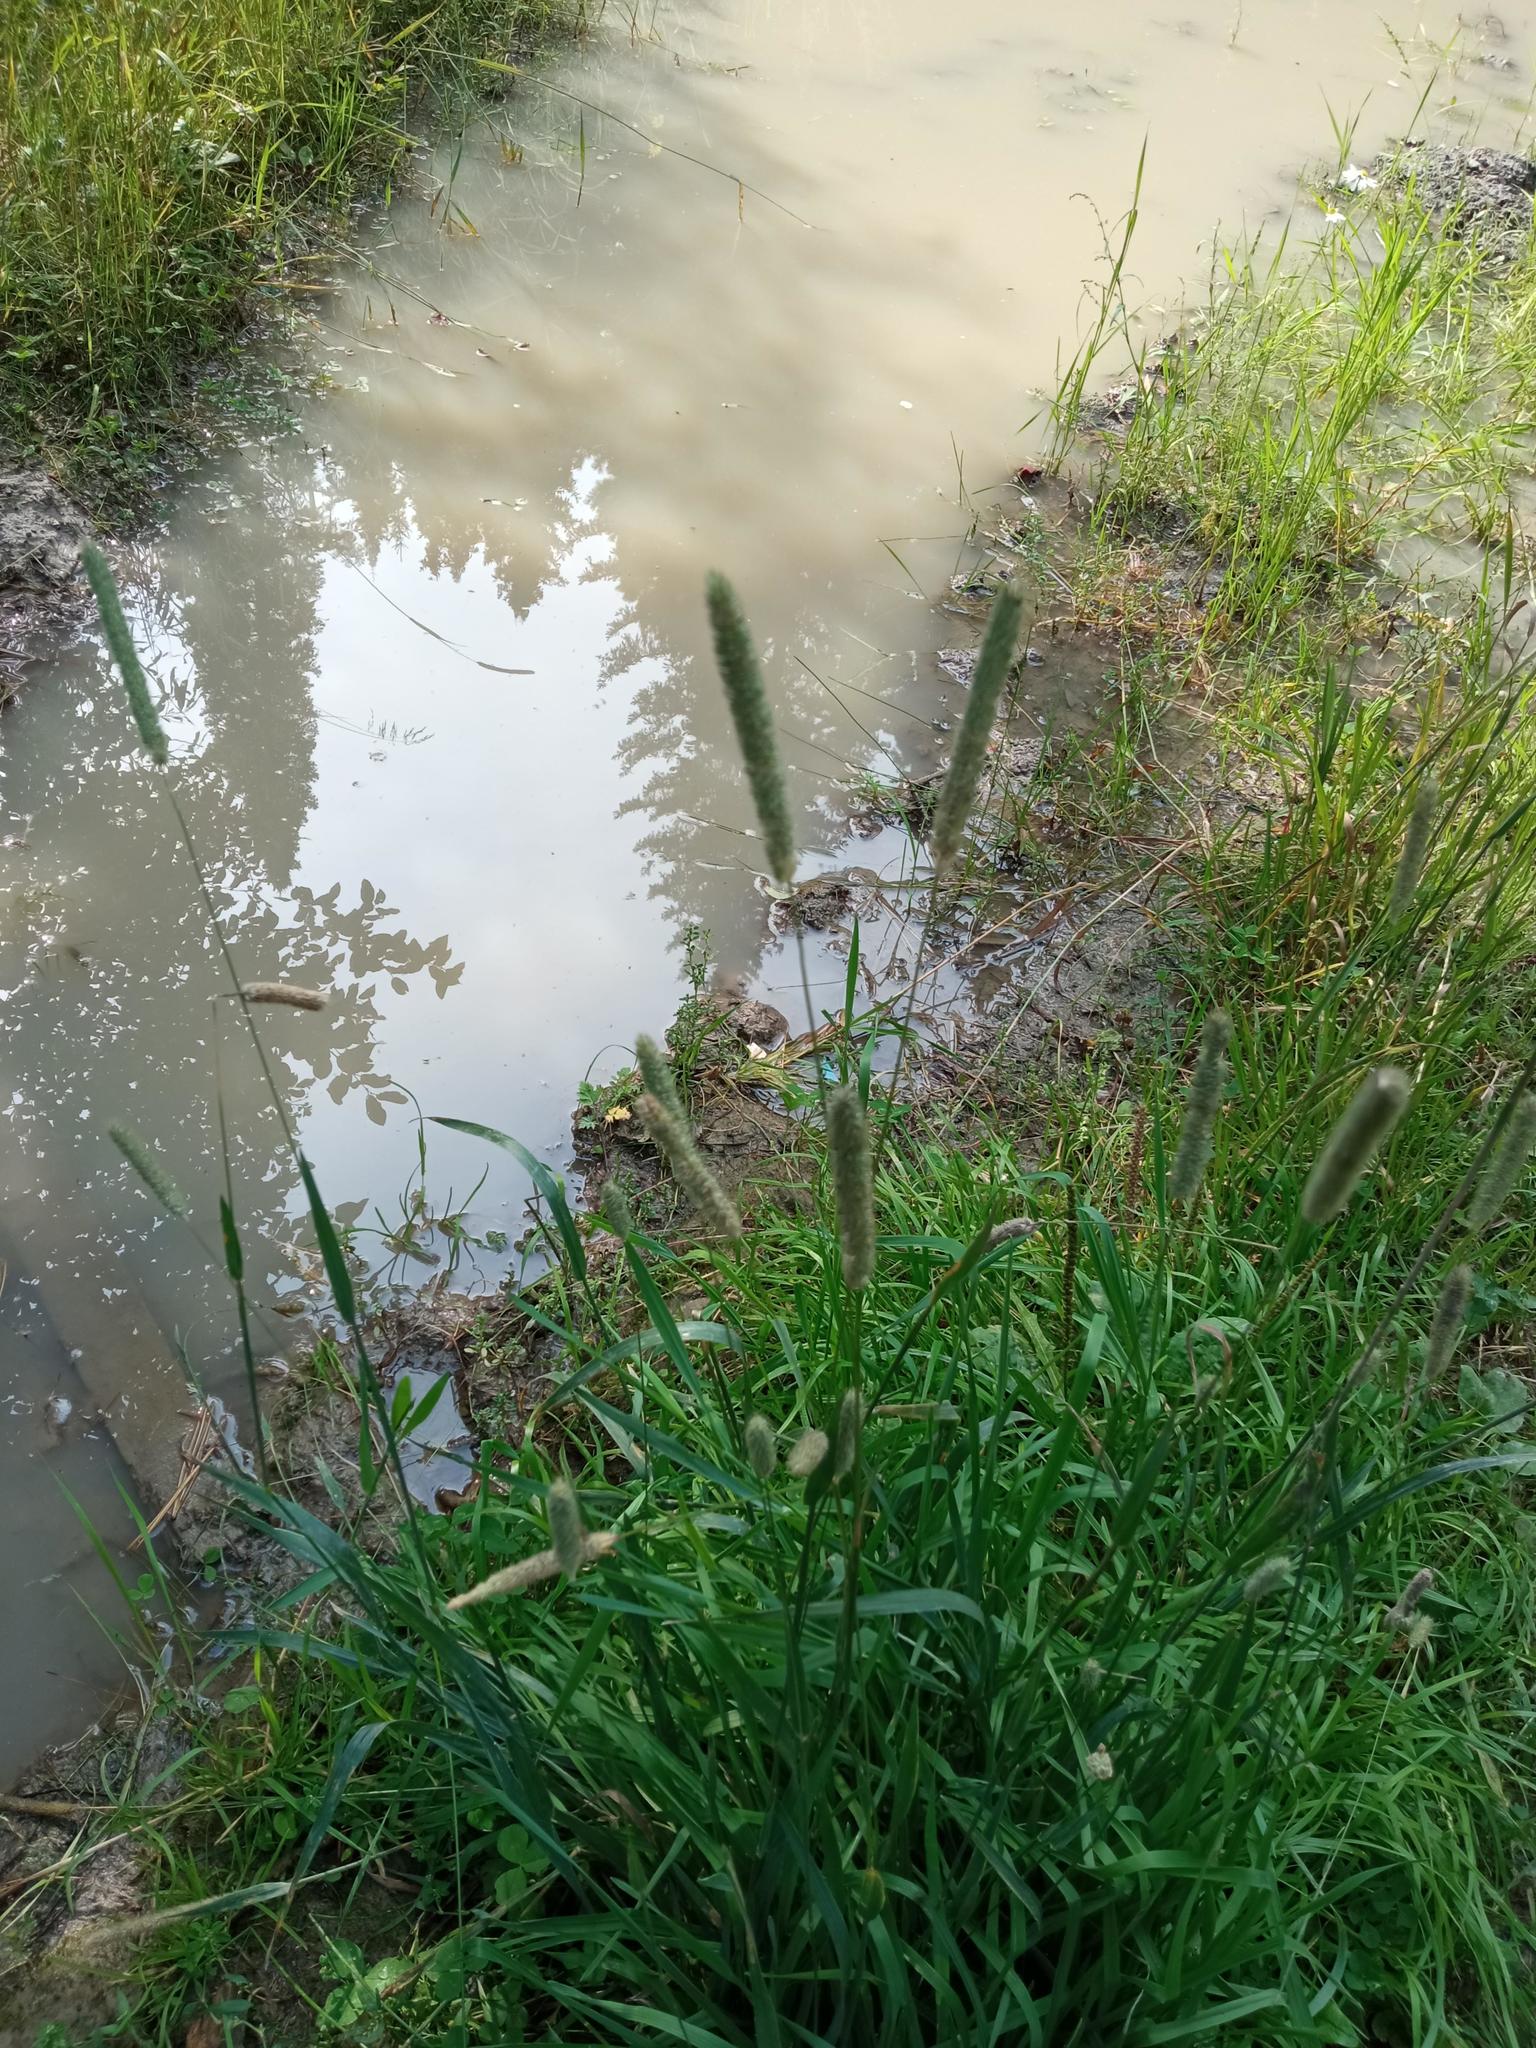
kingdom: Plantae
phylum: Tracheophyta
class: Liliopsida
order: Poales
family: Poaceae
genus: Phleum
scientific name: Phleum pratense
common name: Timothy grass
